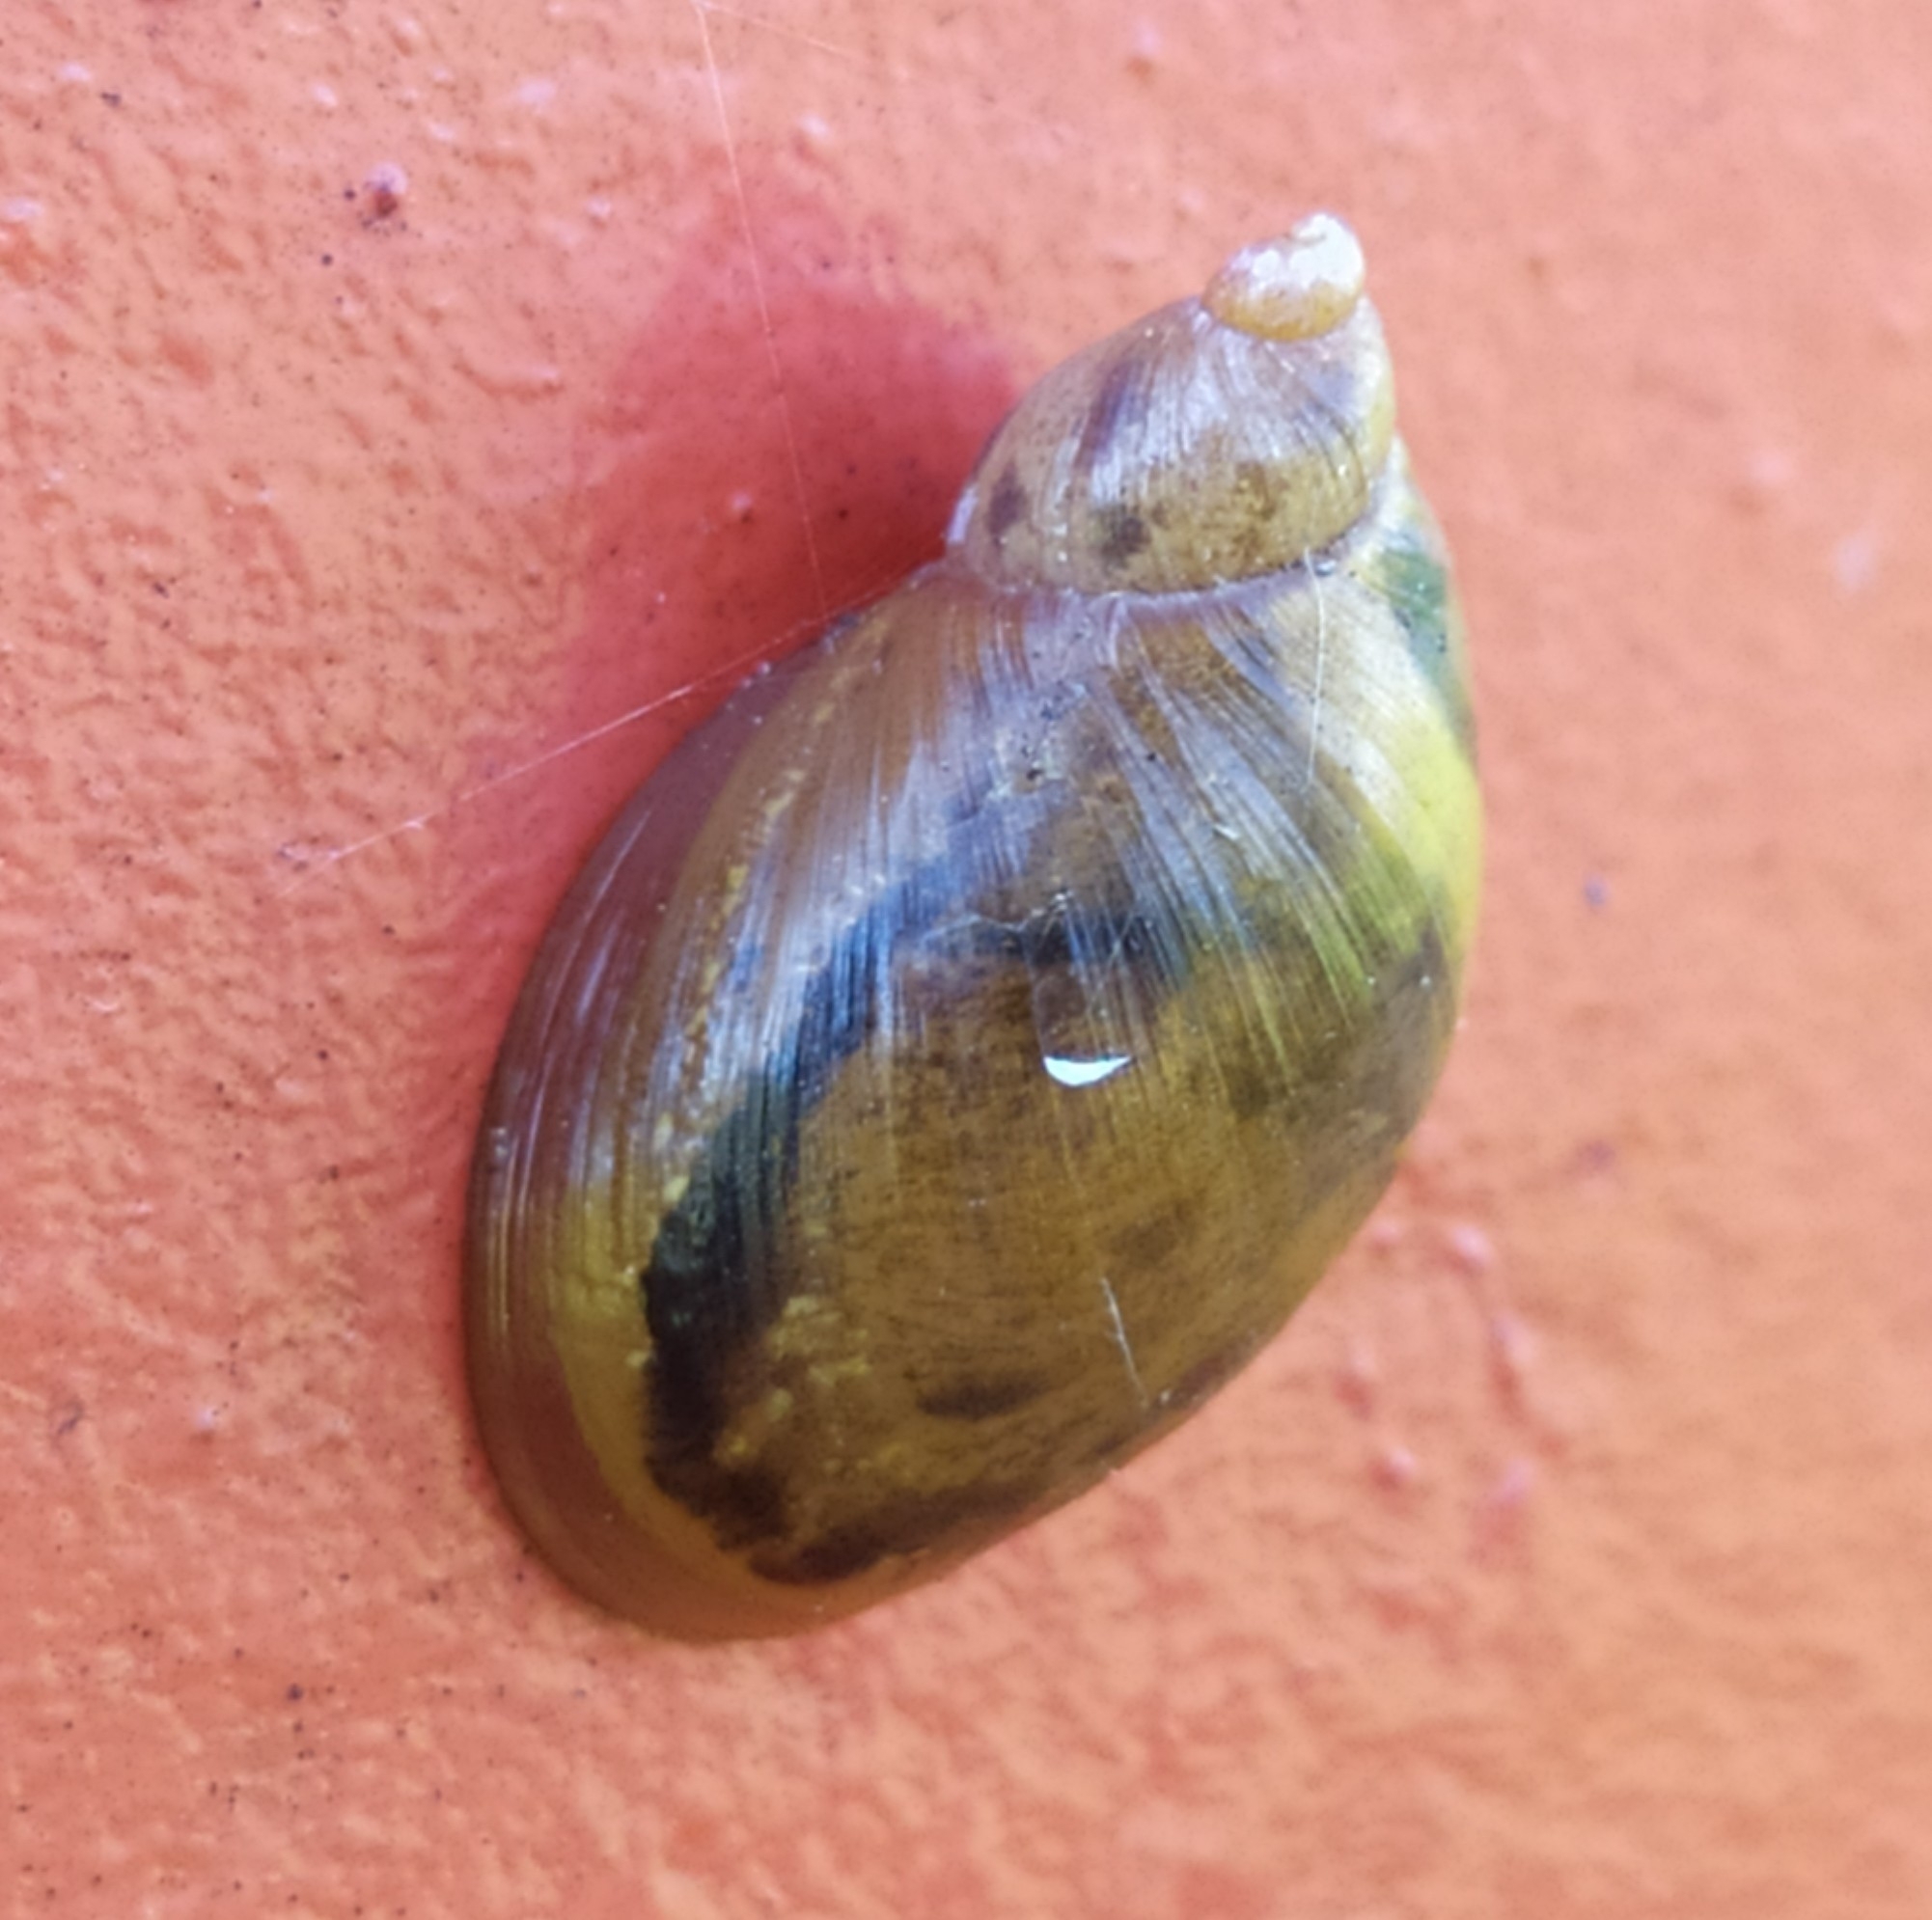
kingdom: Animalia
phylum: Mollusca
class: Gastropoda
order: Stylommatophora
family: Succineidae
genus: Succinea
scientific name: Succinea putris
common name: European ambersnail
